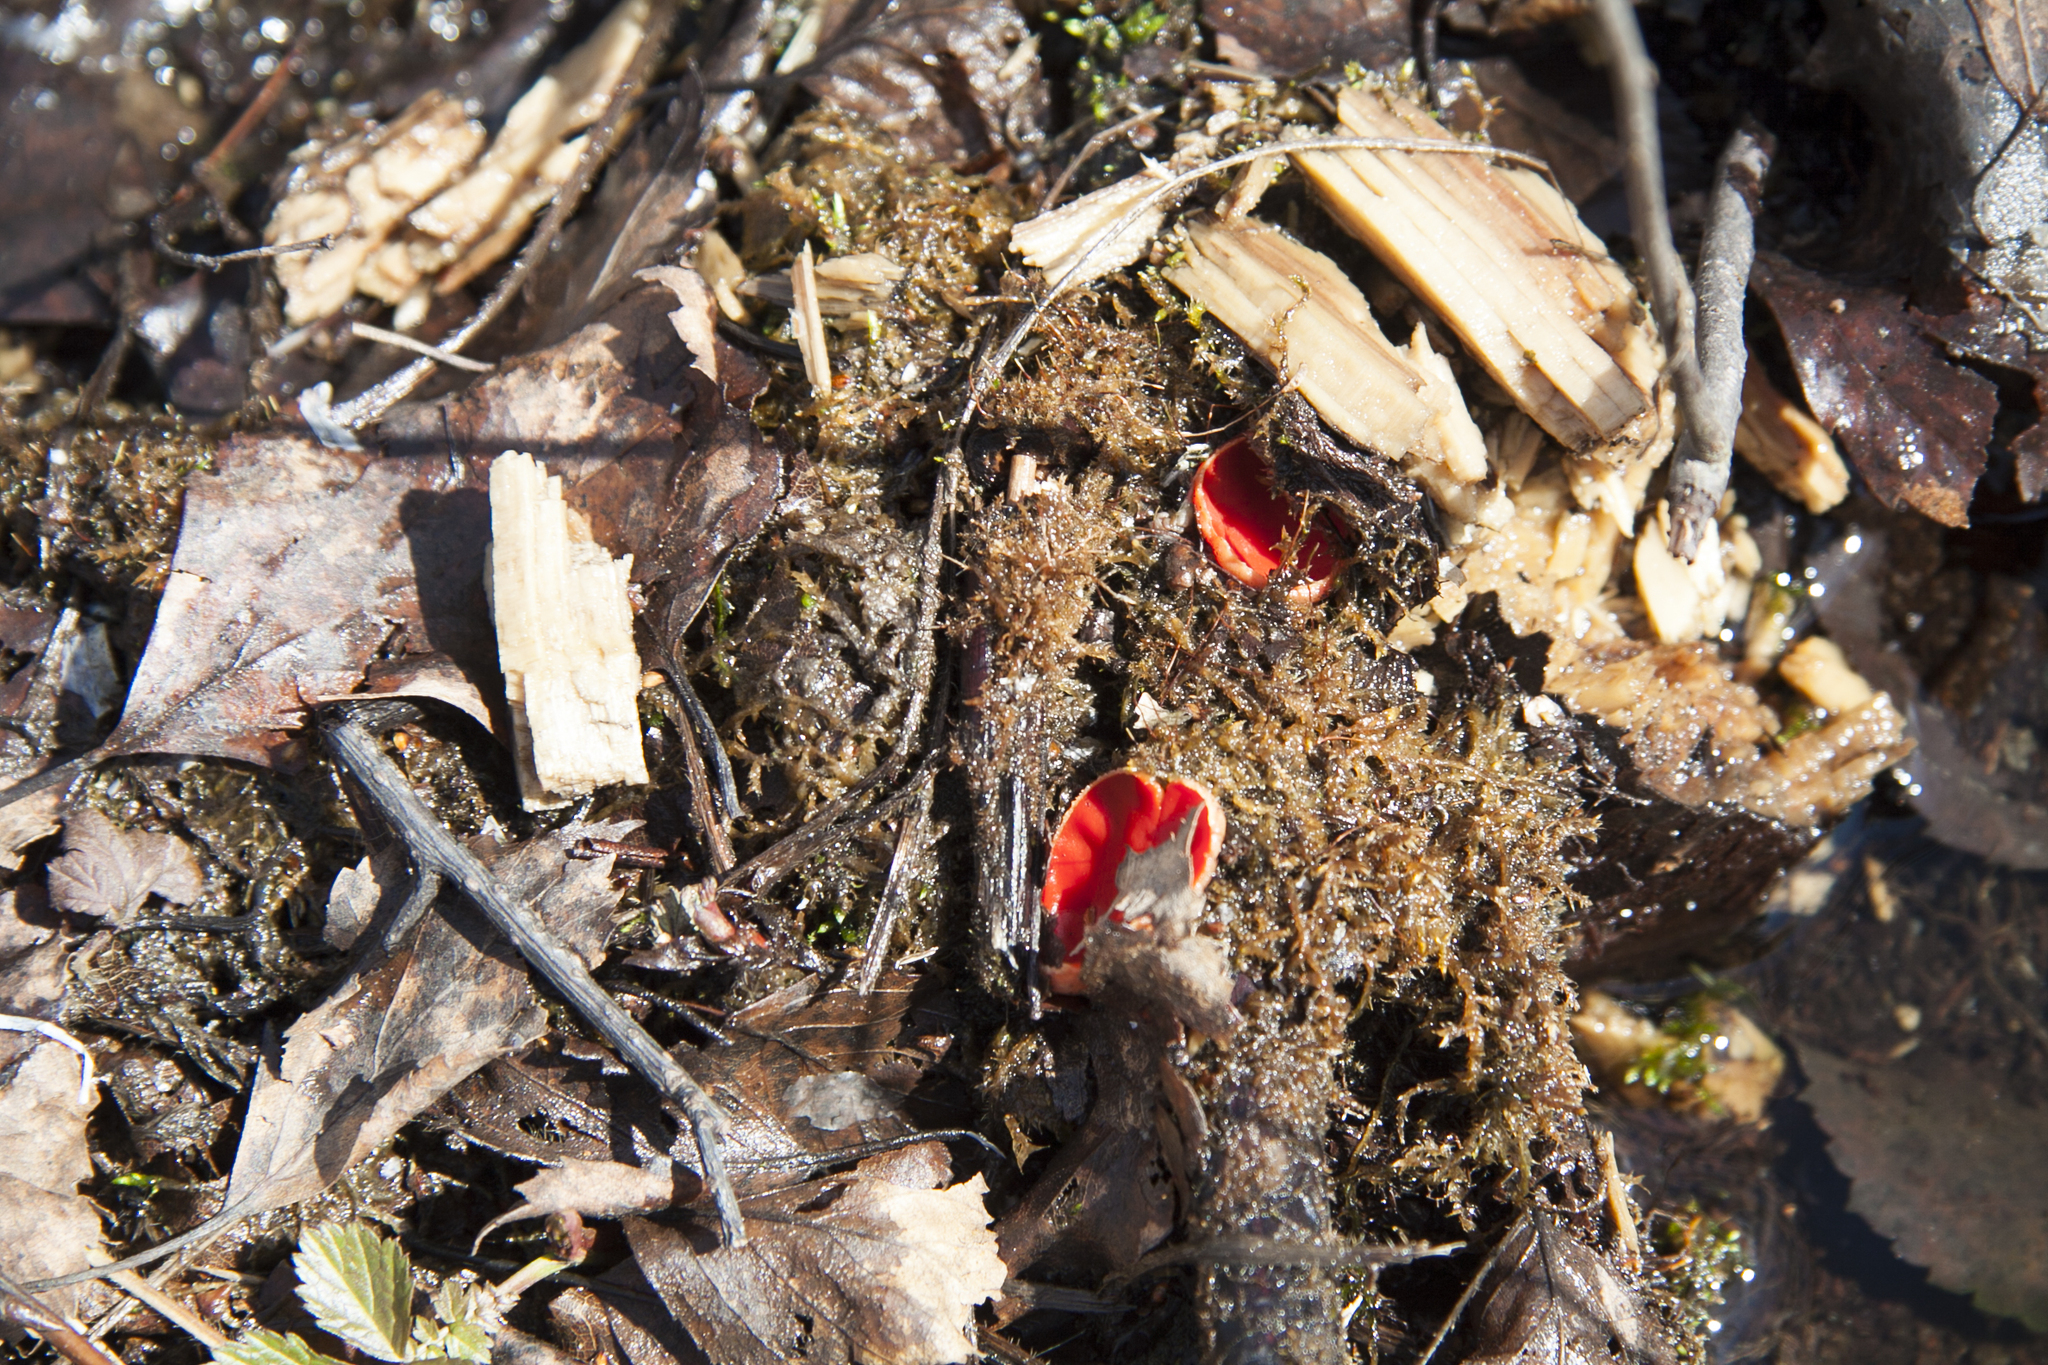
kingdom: Fungi
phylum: Ascomycota
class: Pezizomycetes
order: Pezizales
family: Sarcoscyphaceae
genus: Sarcoscypha
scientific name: Sarcoscypha austriaca
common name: Scarlet elfcup
